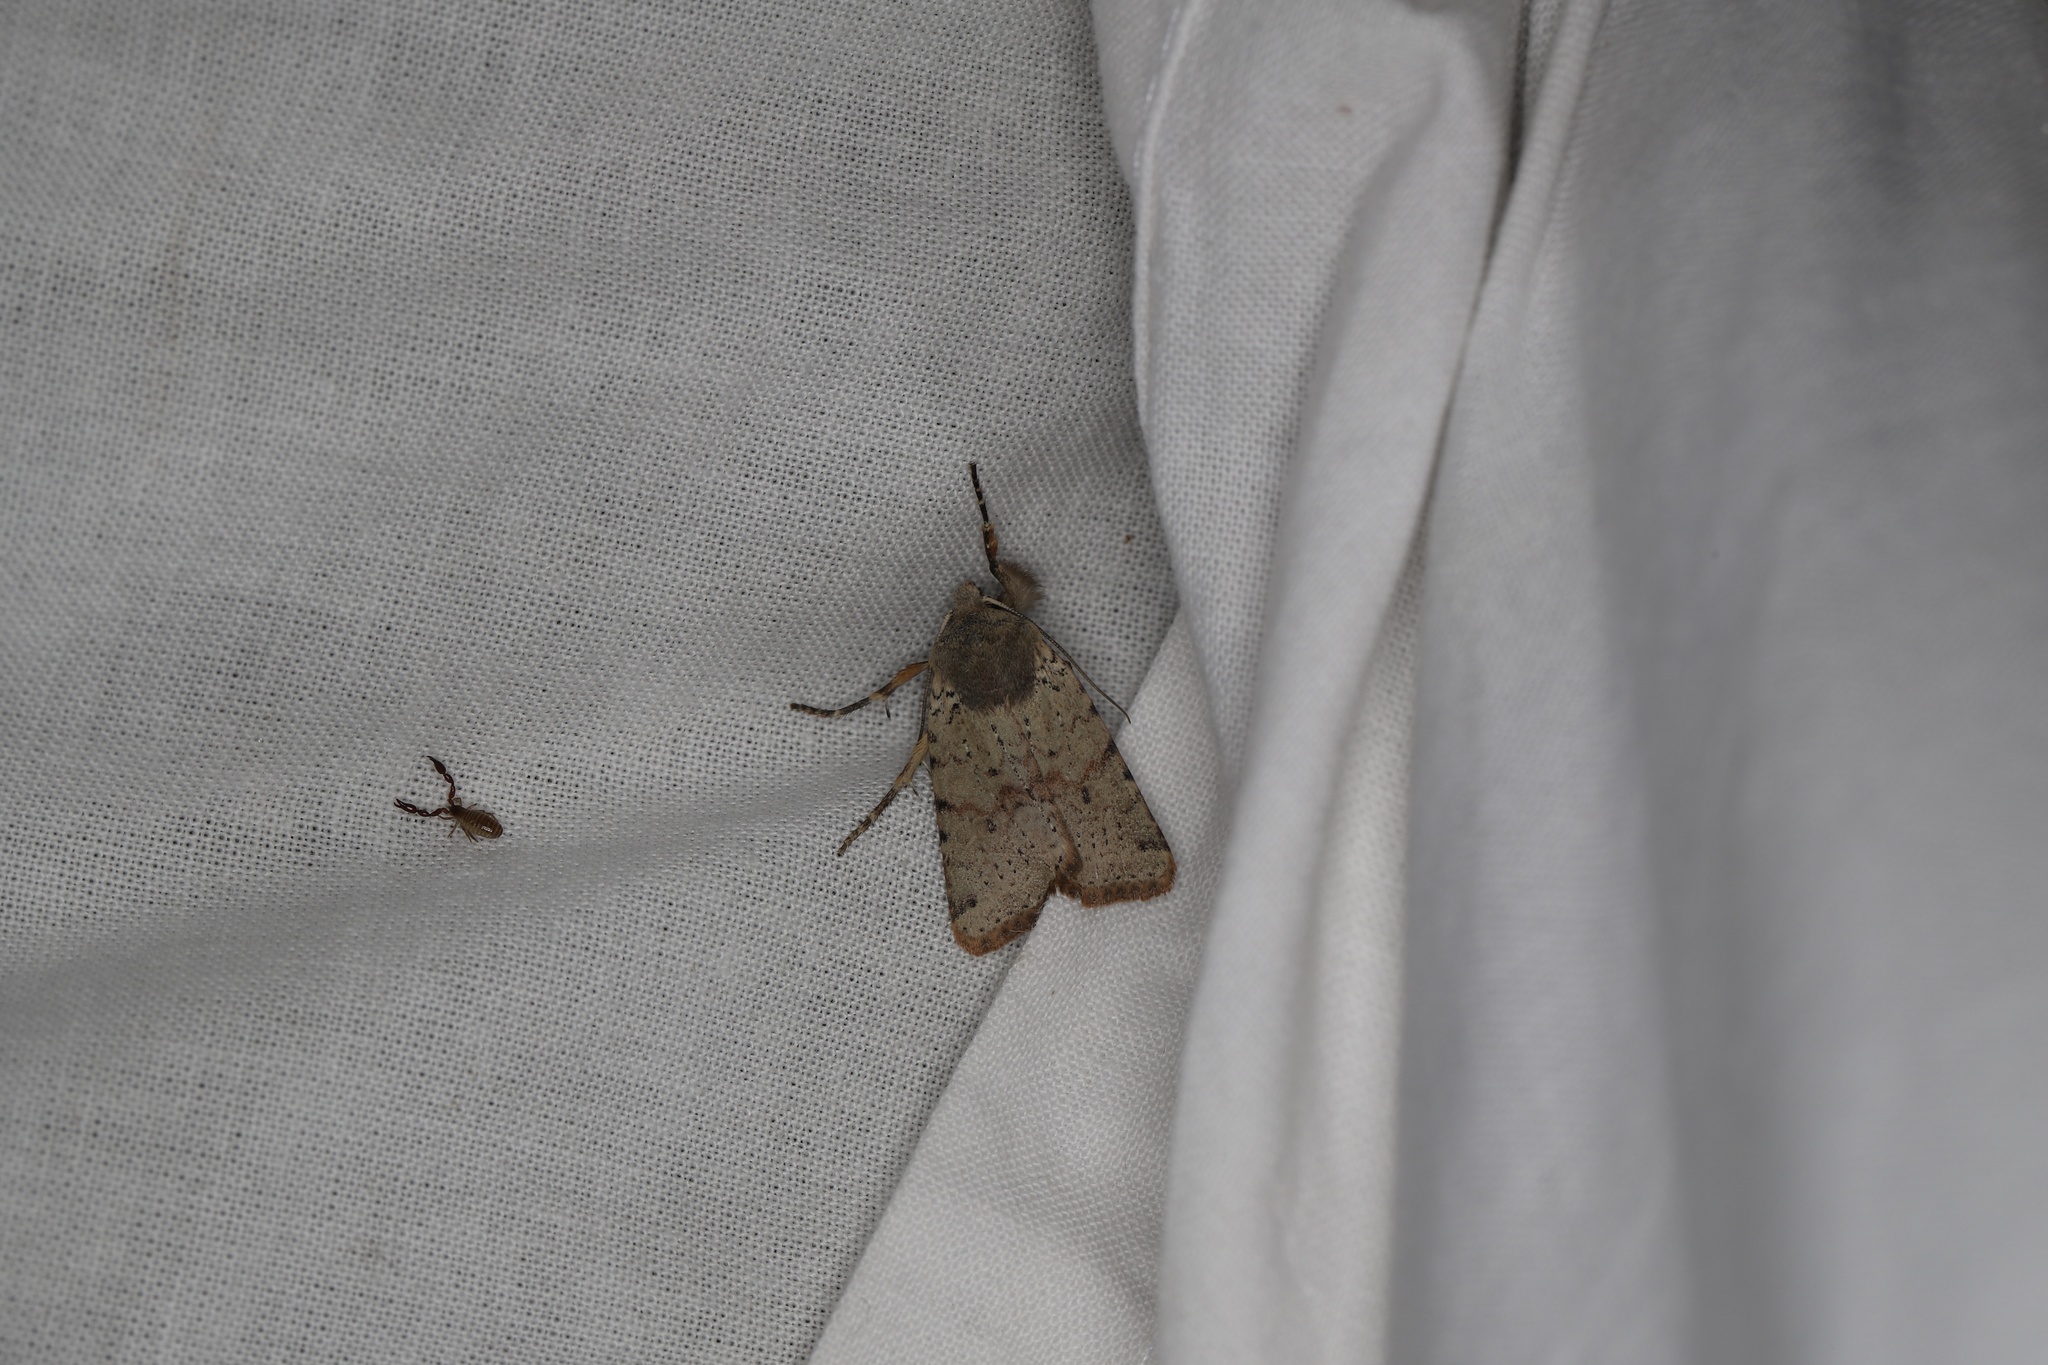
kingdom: Animalia
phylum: Arthropoda
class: Insecta
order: Lepidoptera
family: Noctuidae
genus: Agrochola
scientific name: Agrochola ruticilla
